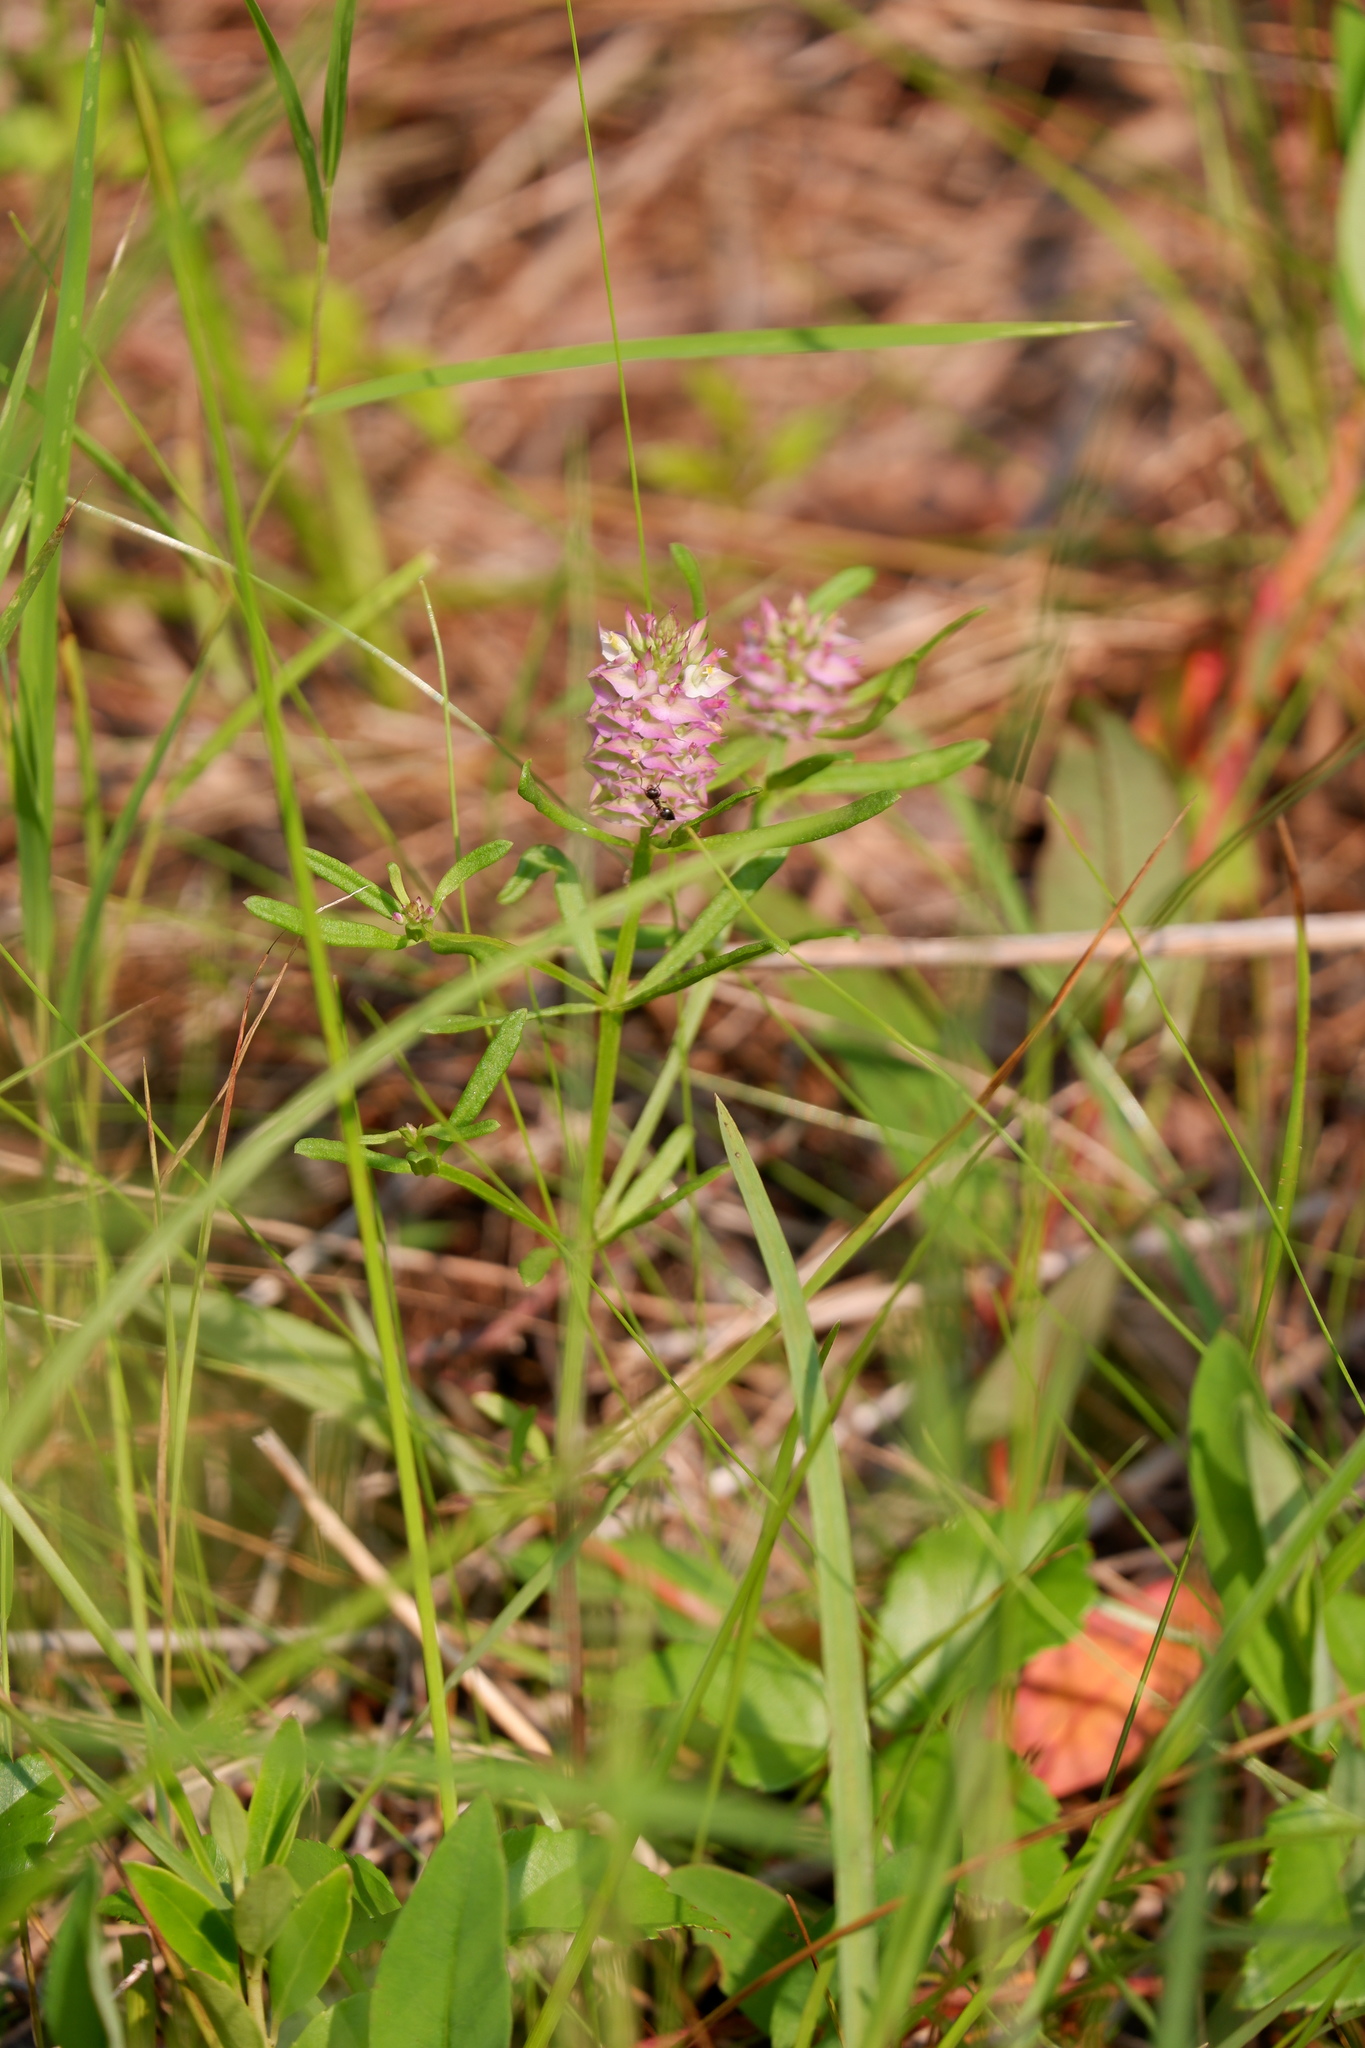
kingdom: Plantae
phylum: Tracheophyta
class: Magnoliopsida
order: Fabales
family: Polygalaceae
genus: Polygala
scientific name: Polygala cruciata
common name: Drumheads
